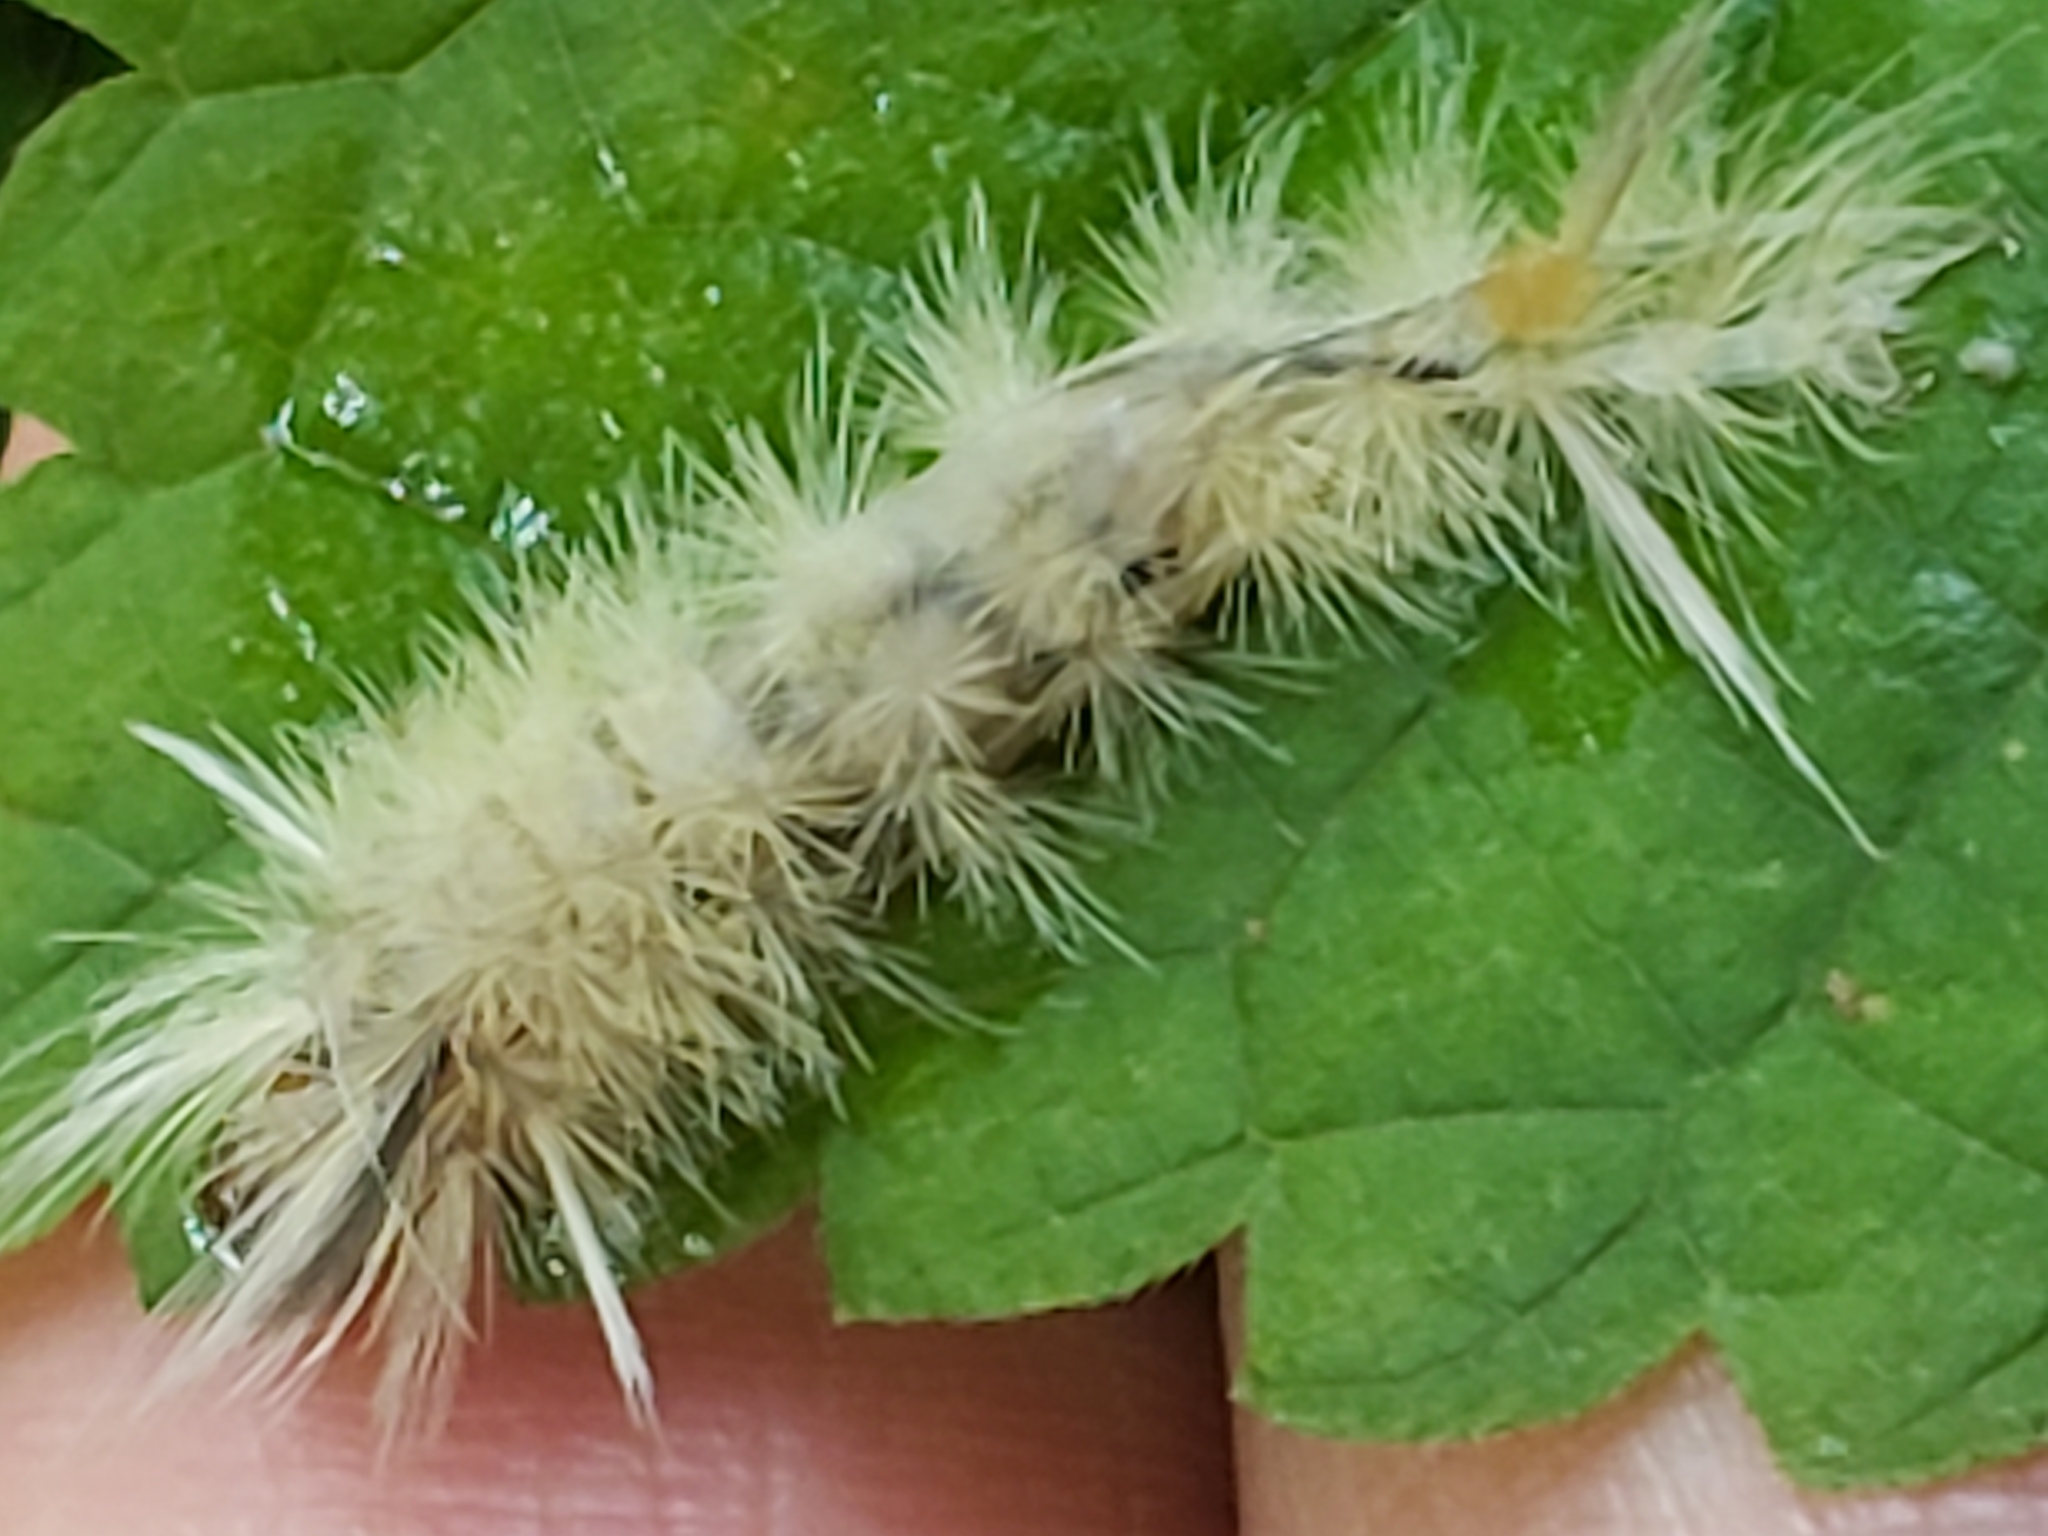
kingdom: Animalia
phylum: Arthropoda
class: Insecta
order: Lepidoptera
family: Erebidae
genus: Halysidota
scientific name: Halysidota tessellaris
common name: Banded tussock moth
